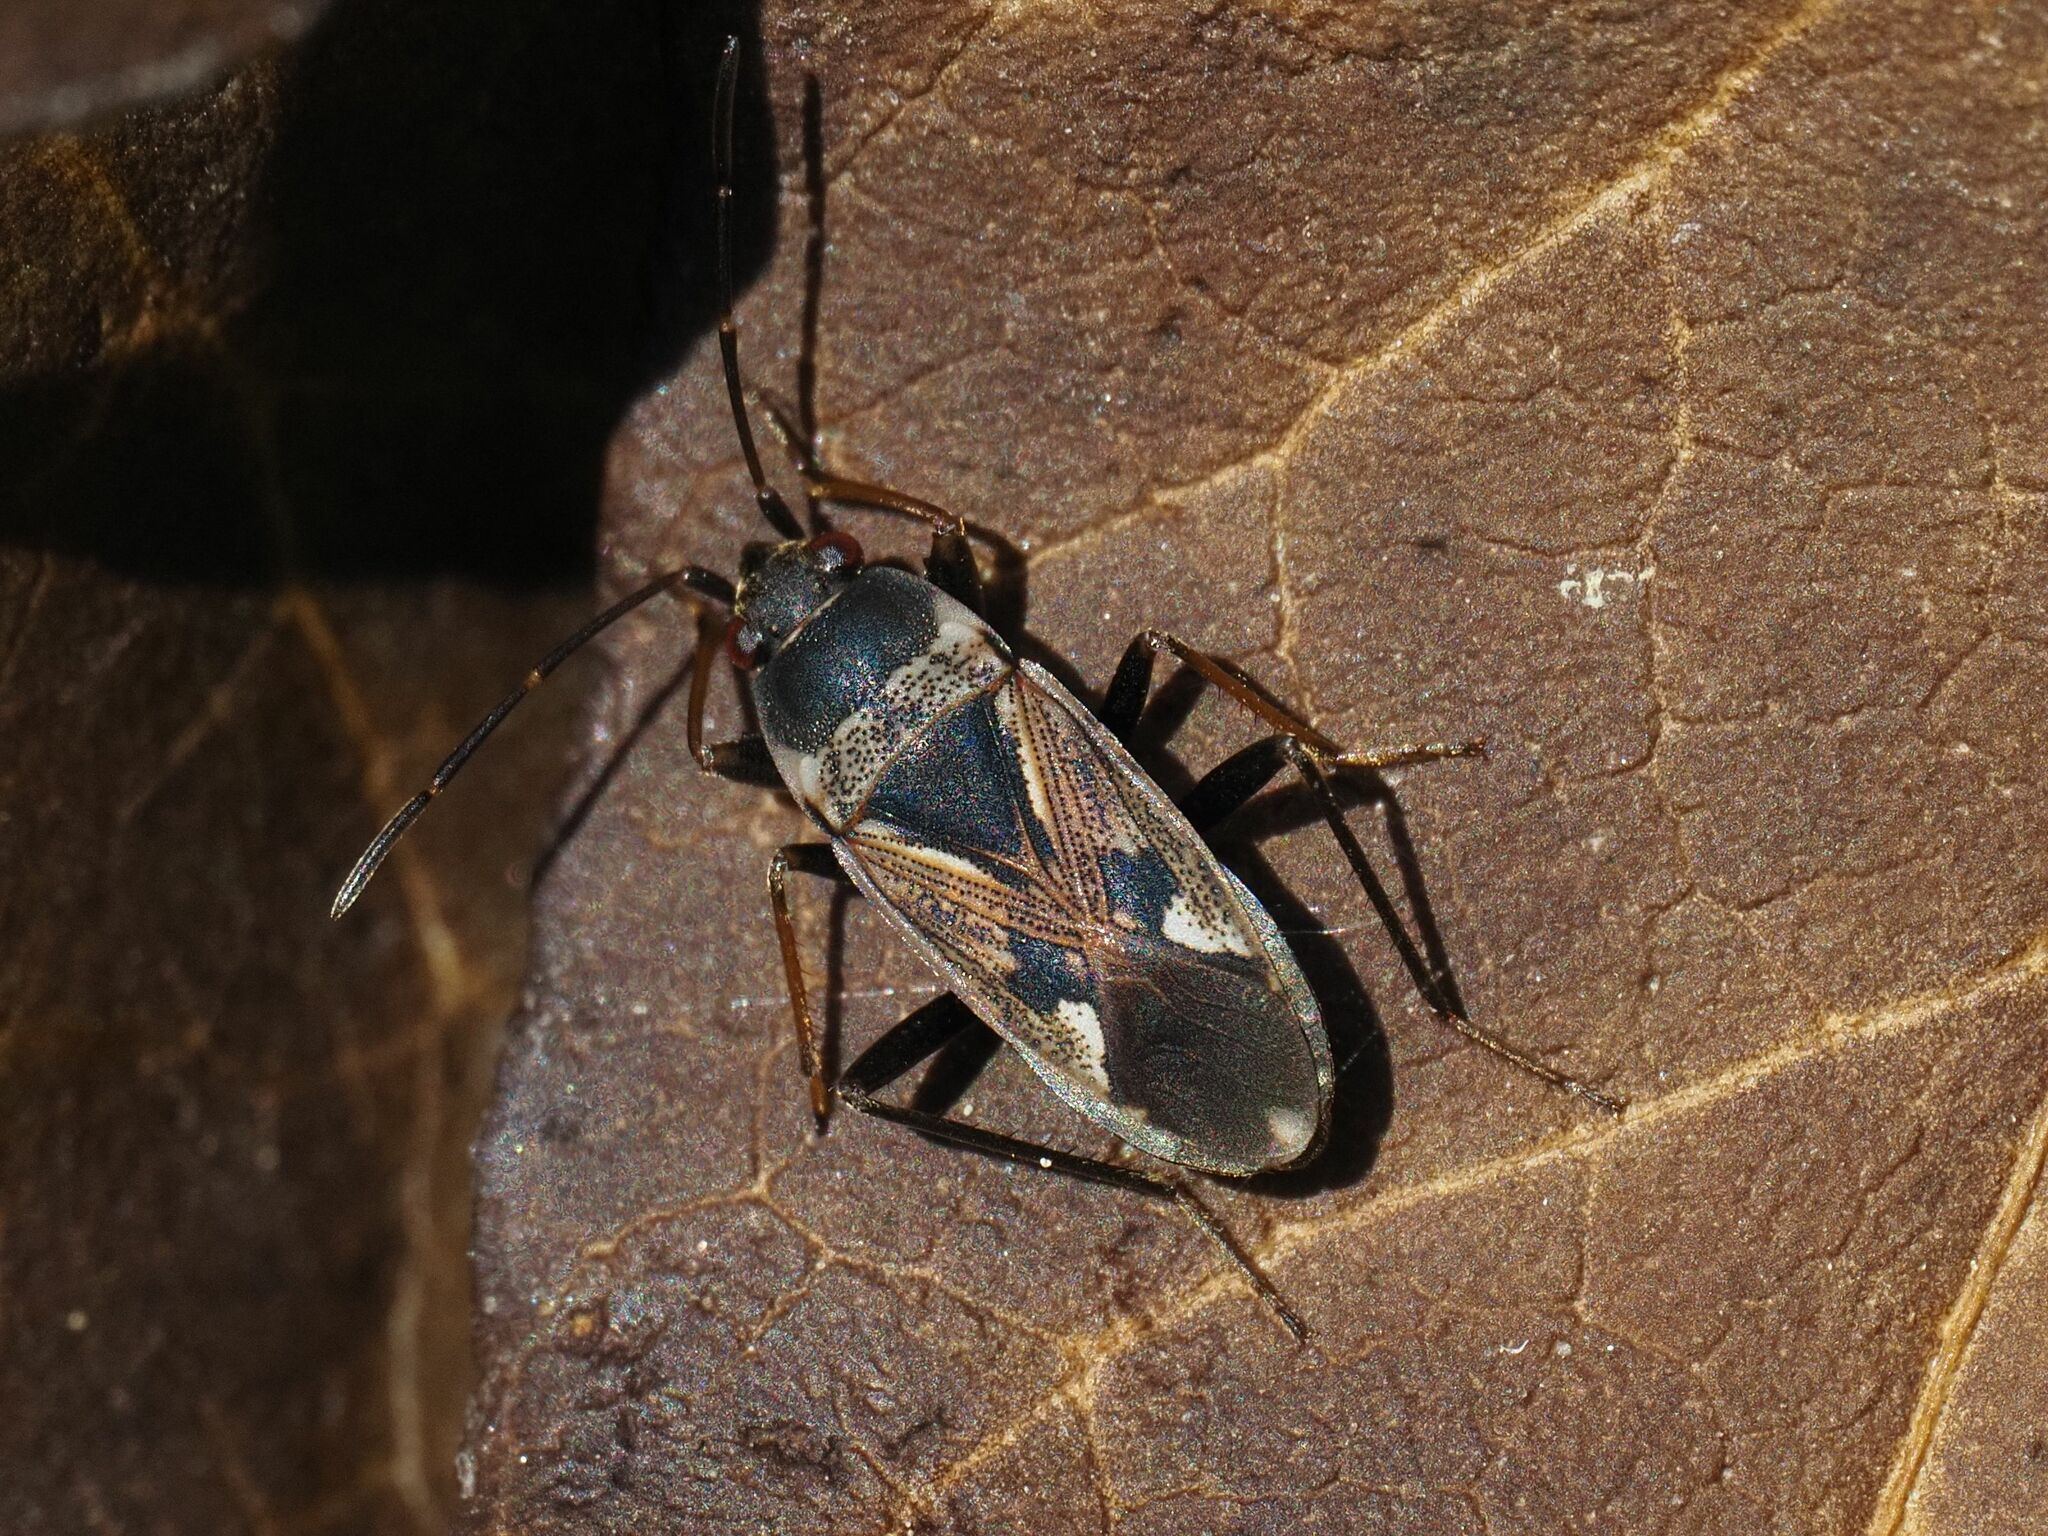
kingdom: Animalia
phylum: Arthropoda
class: Insecta
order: Hemiptera
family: Rhyparochromidae
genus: Rhyparochromus
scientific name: Rhyparochromus vulgaris
